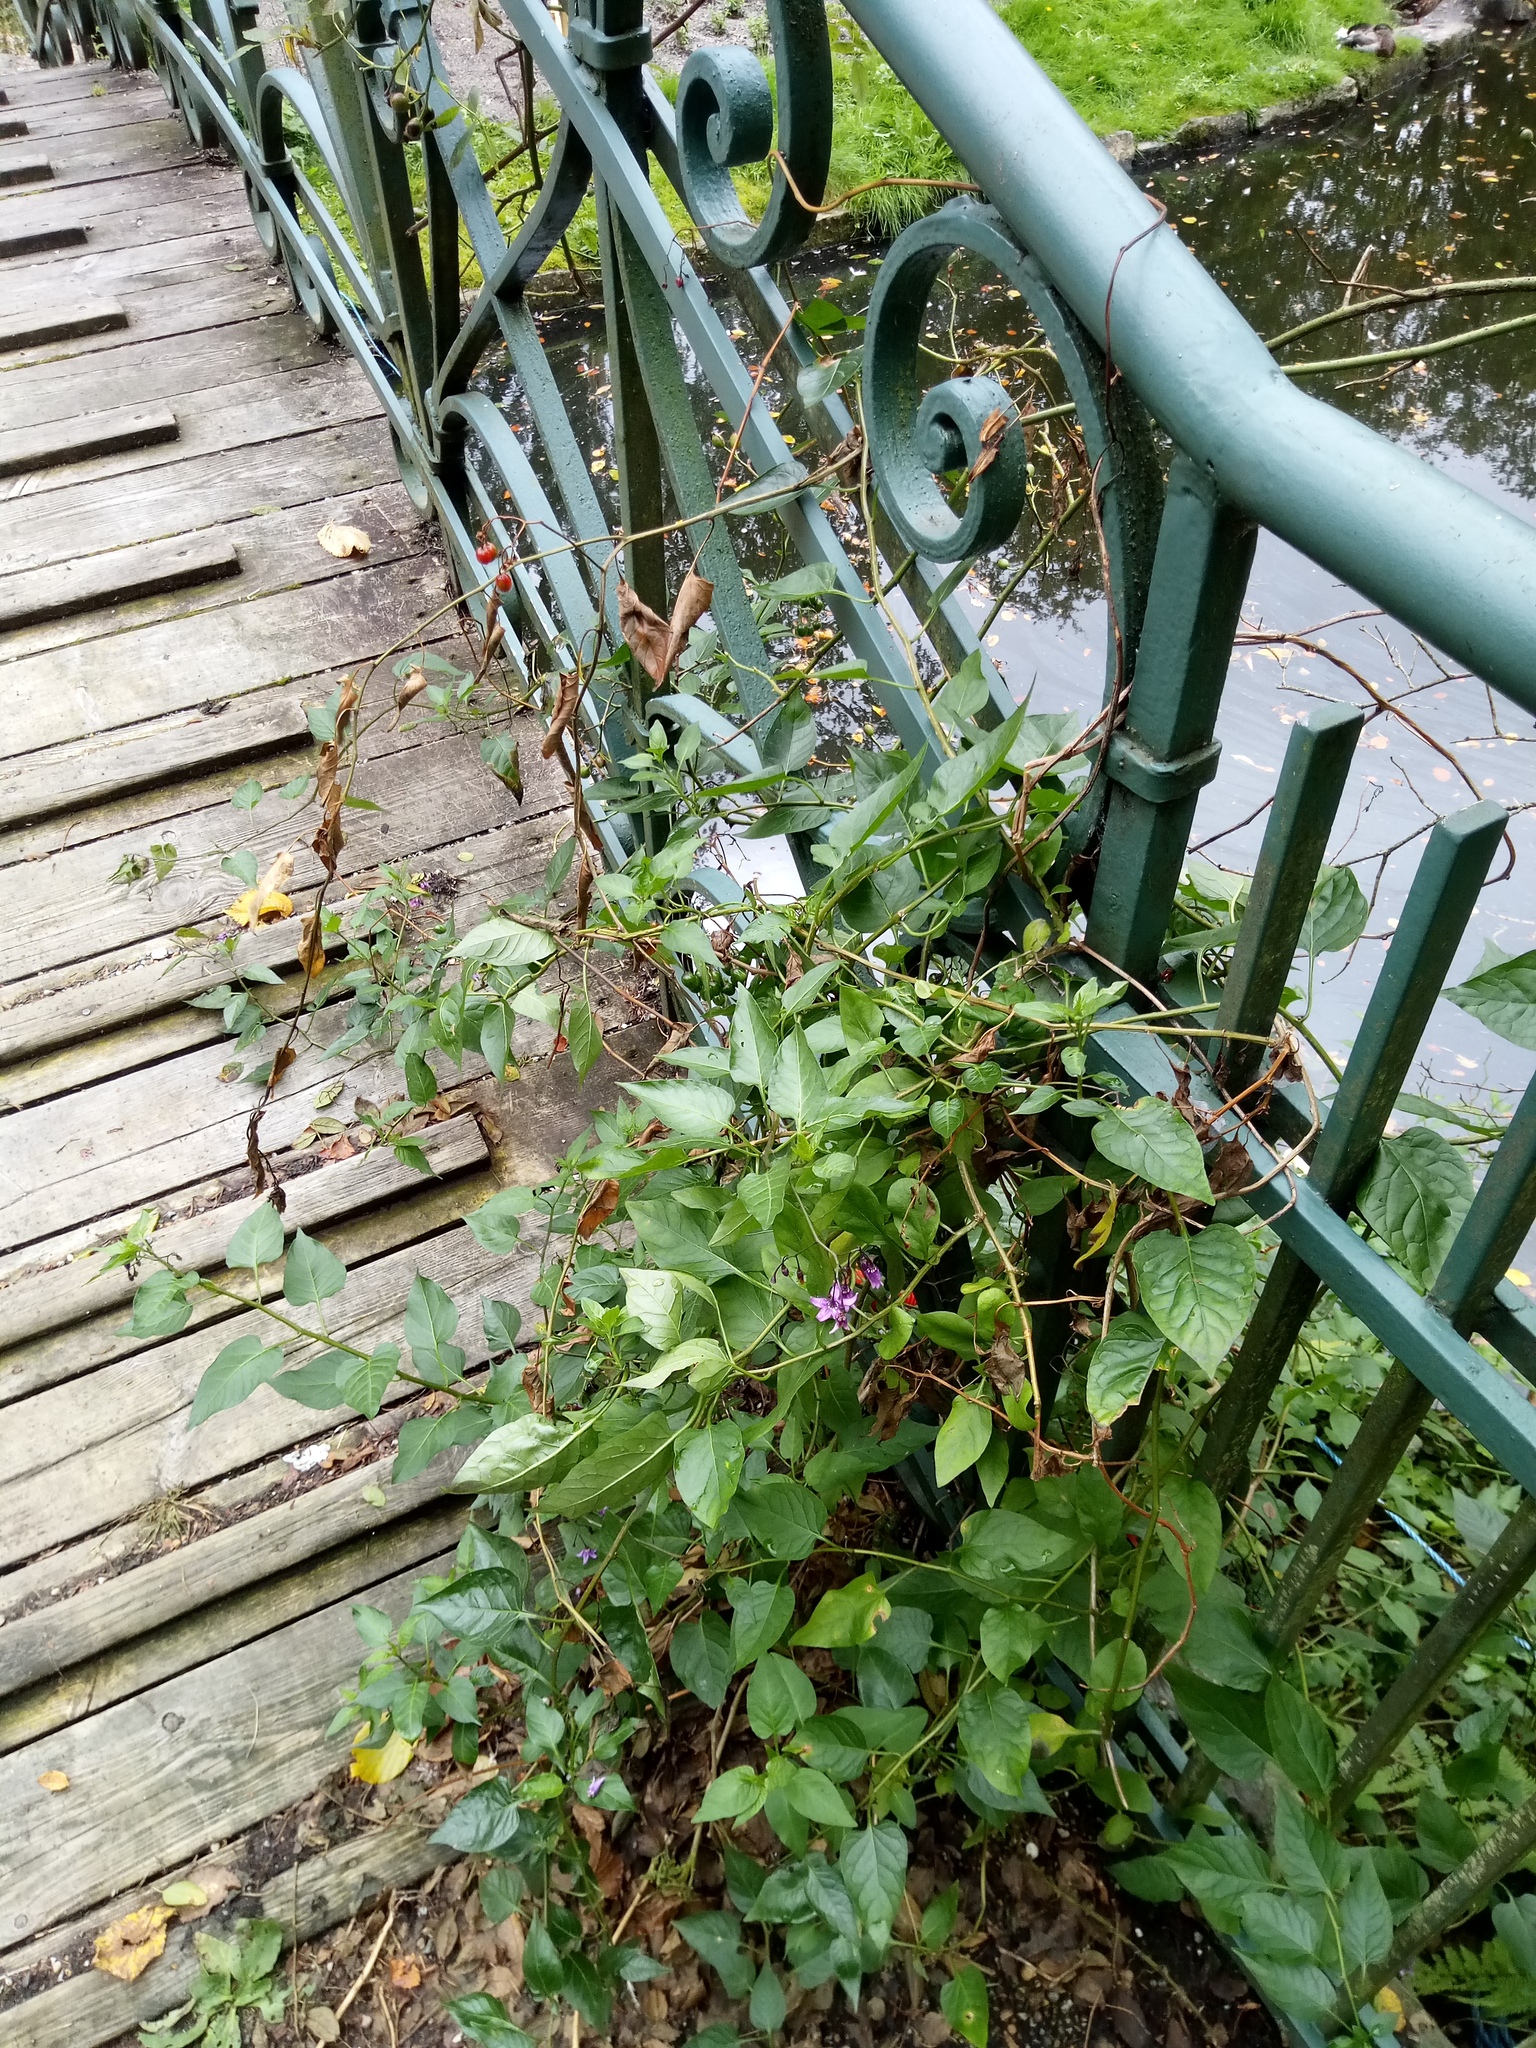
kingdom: Plantae
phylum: Tracheophyta
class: Magnoliopsida
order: Solanales
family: Solanaceae
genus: Solanum
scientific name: Solanum dulcamara
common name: Climbing nightshade
